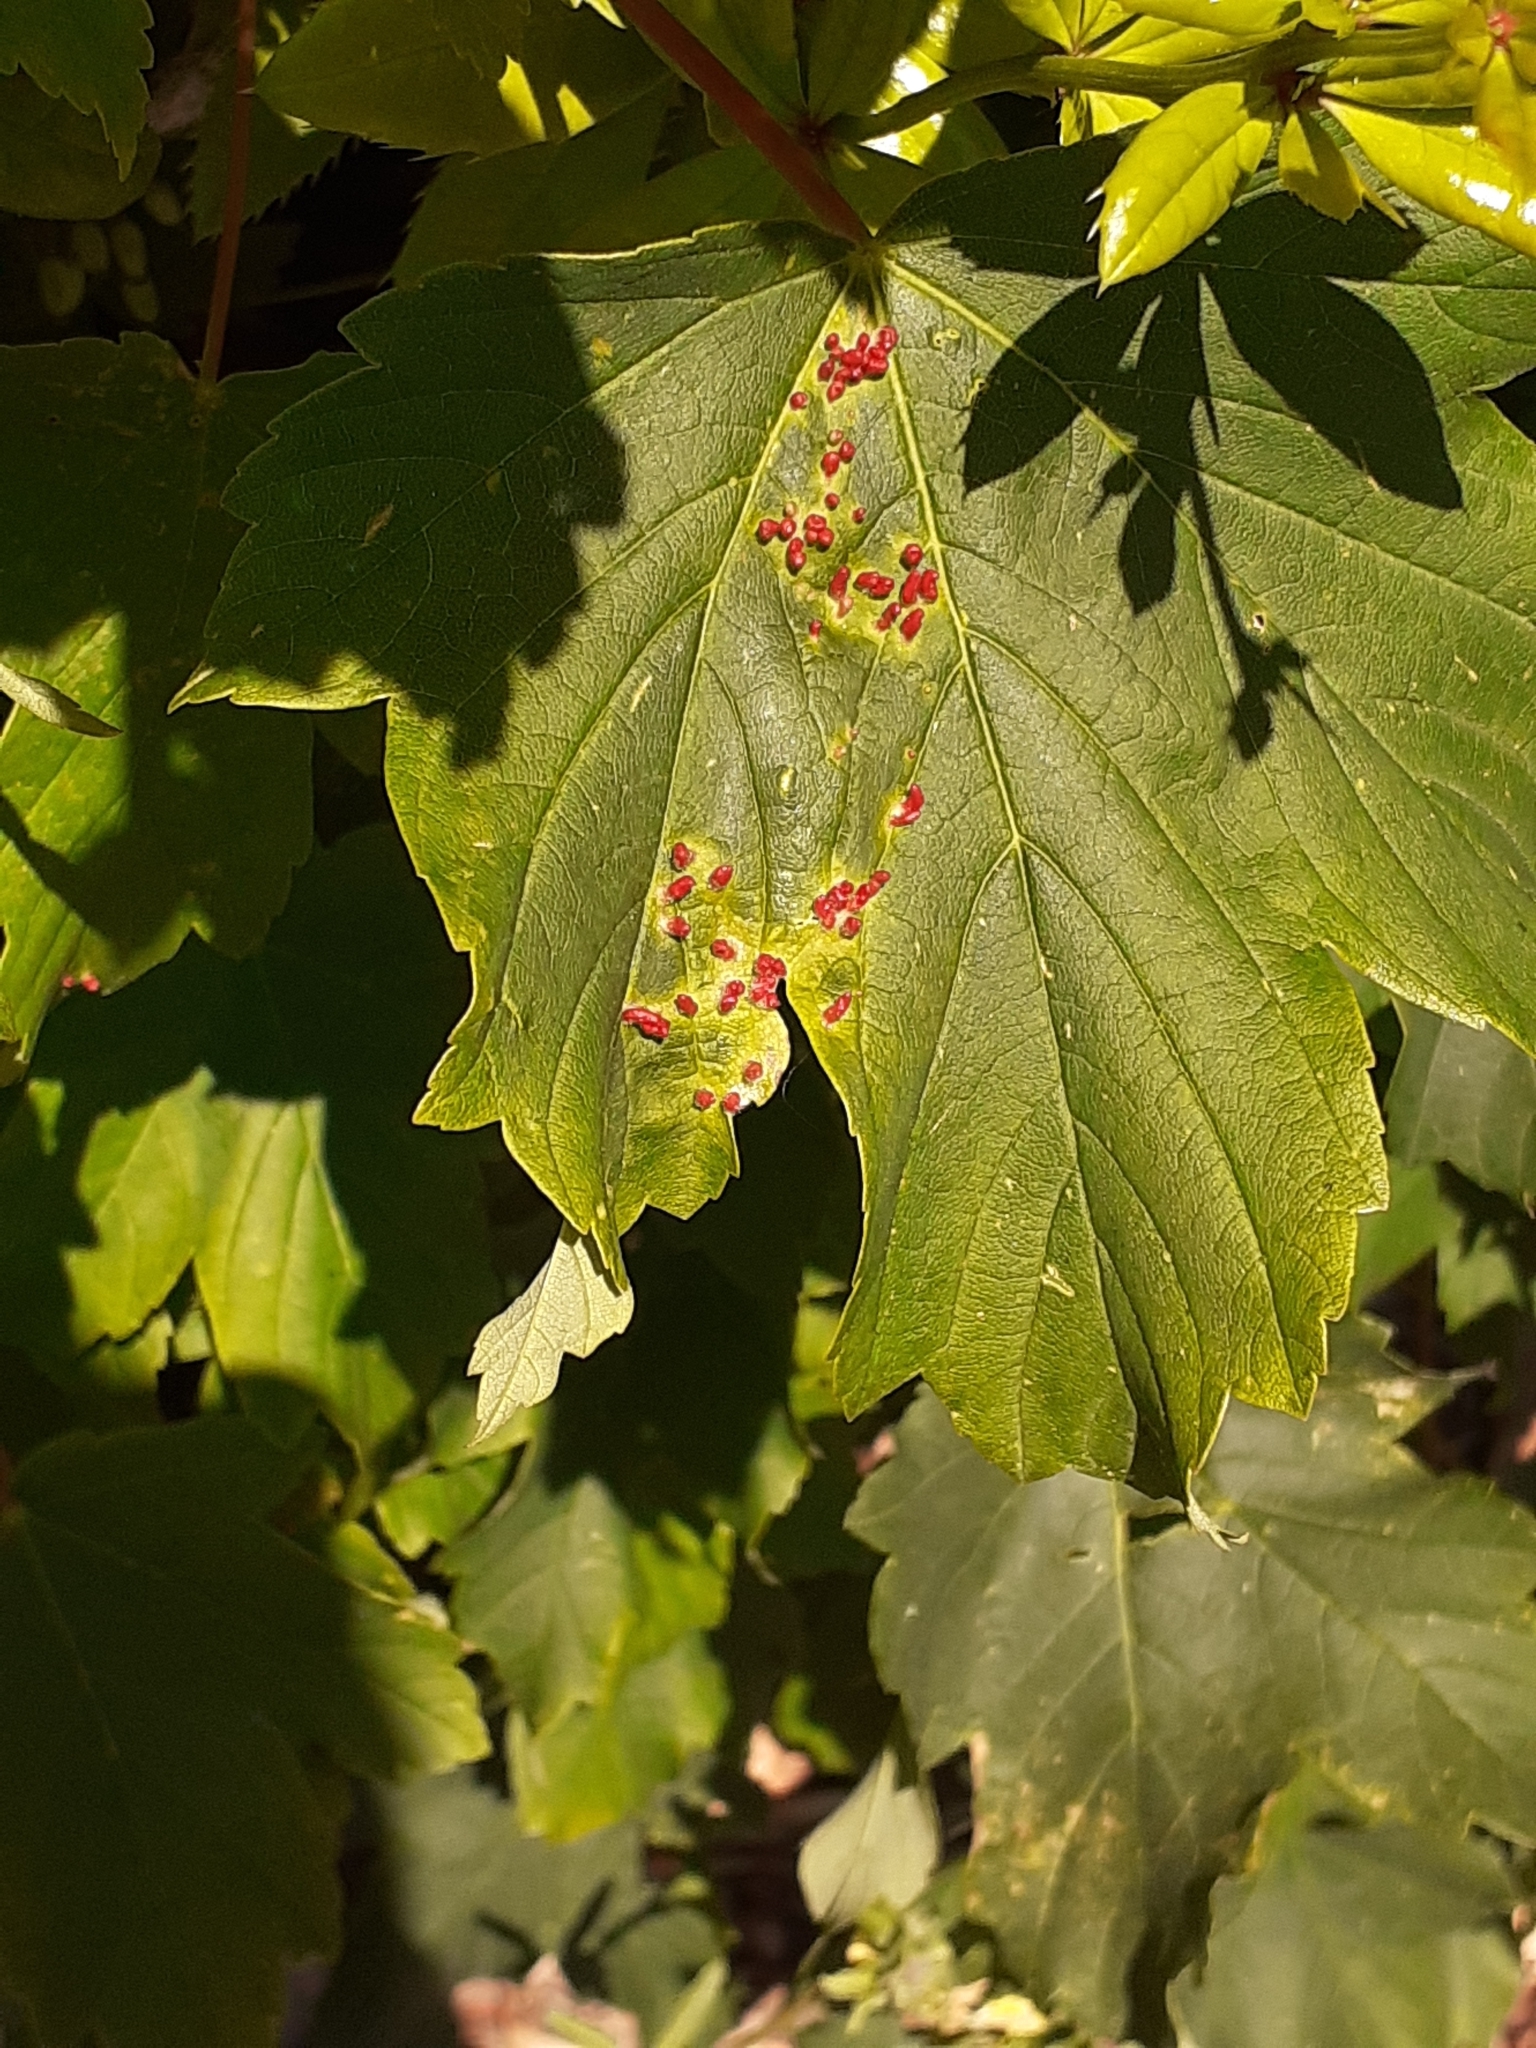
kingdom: Animalia
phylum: Arthropoda
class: Arachnida
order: Trombidiformes
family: Eriophyidae
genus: Aceria
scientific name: Aceria cephaloneus
